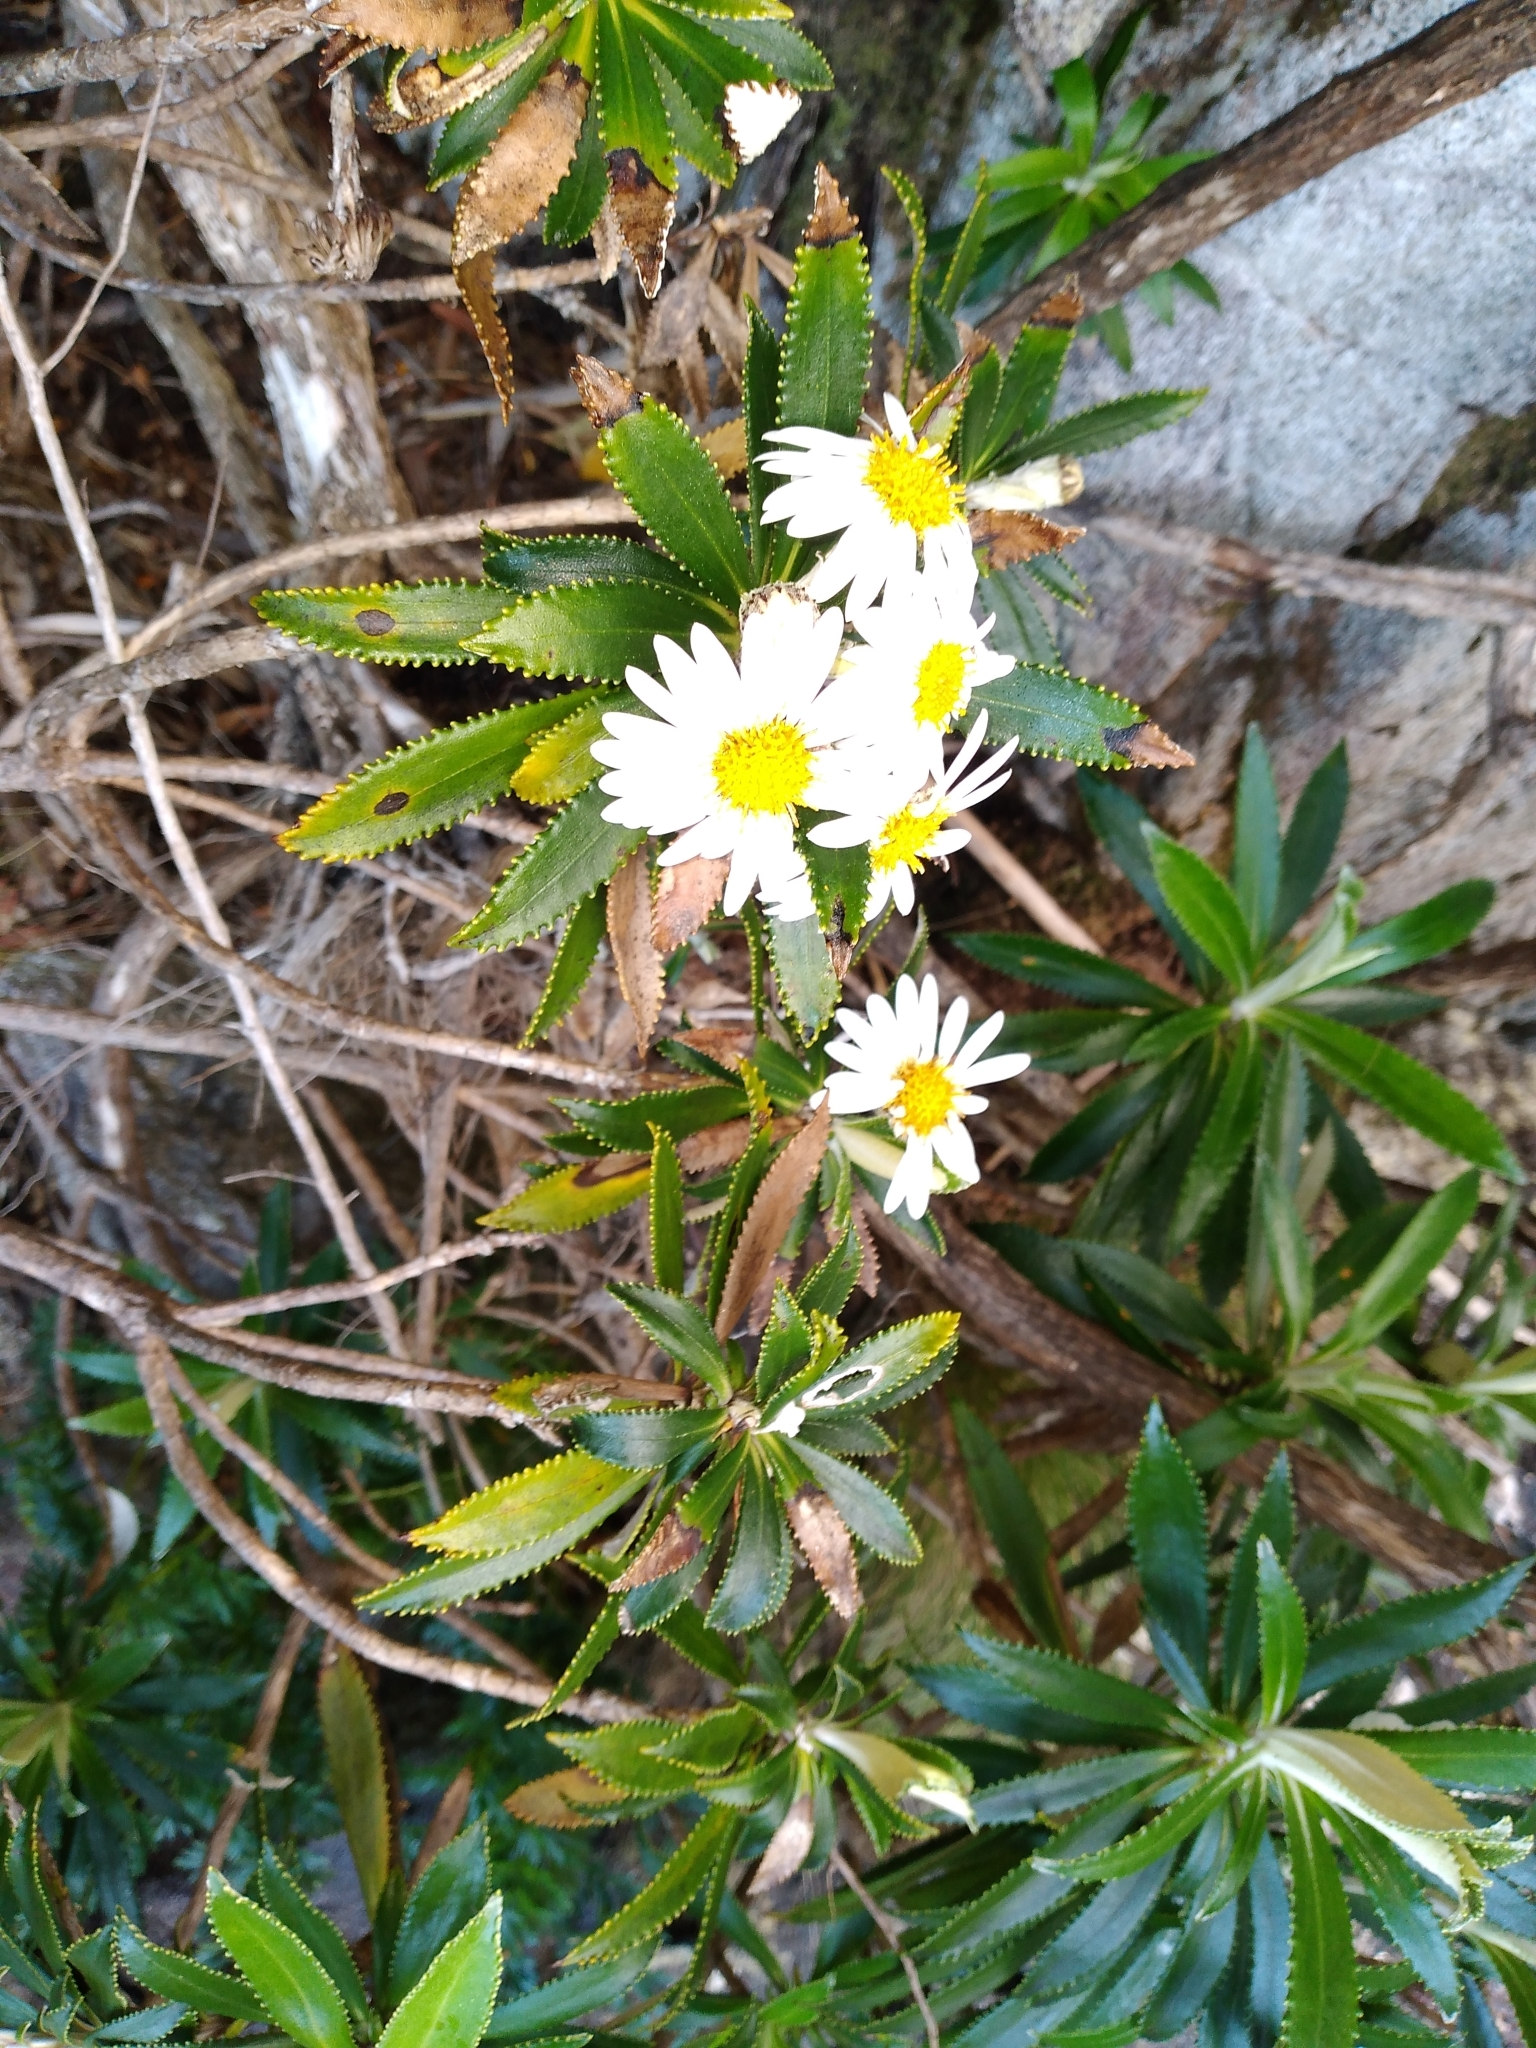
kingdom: Plantae
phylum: Tracheophyta
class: Magnoliopsida
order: Asterales
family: Asteraceae
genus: Macrolearia
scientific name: Macrolearia oporina
